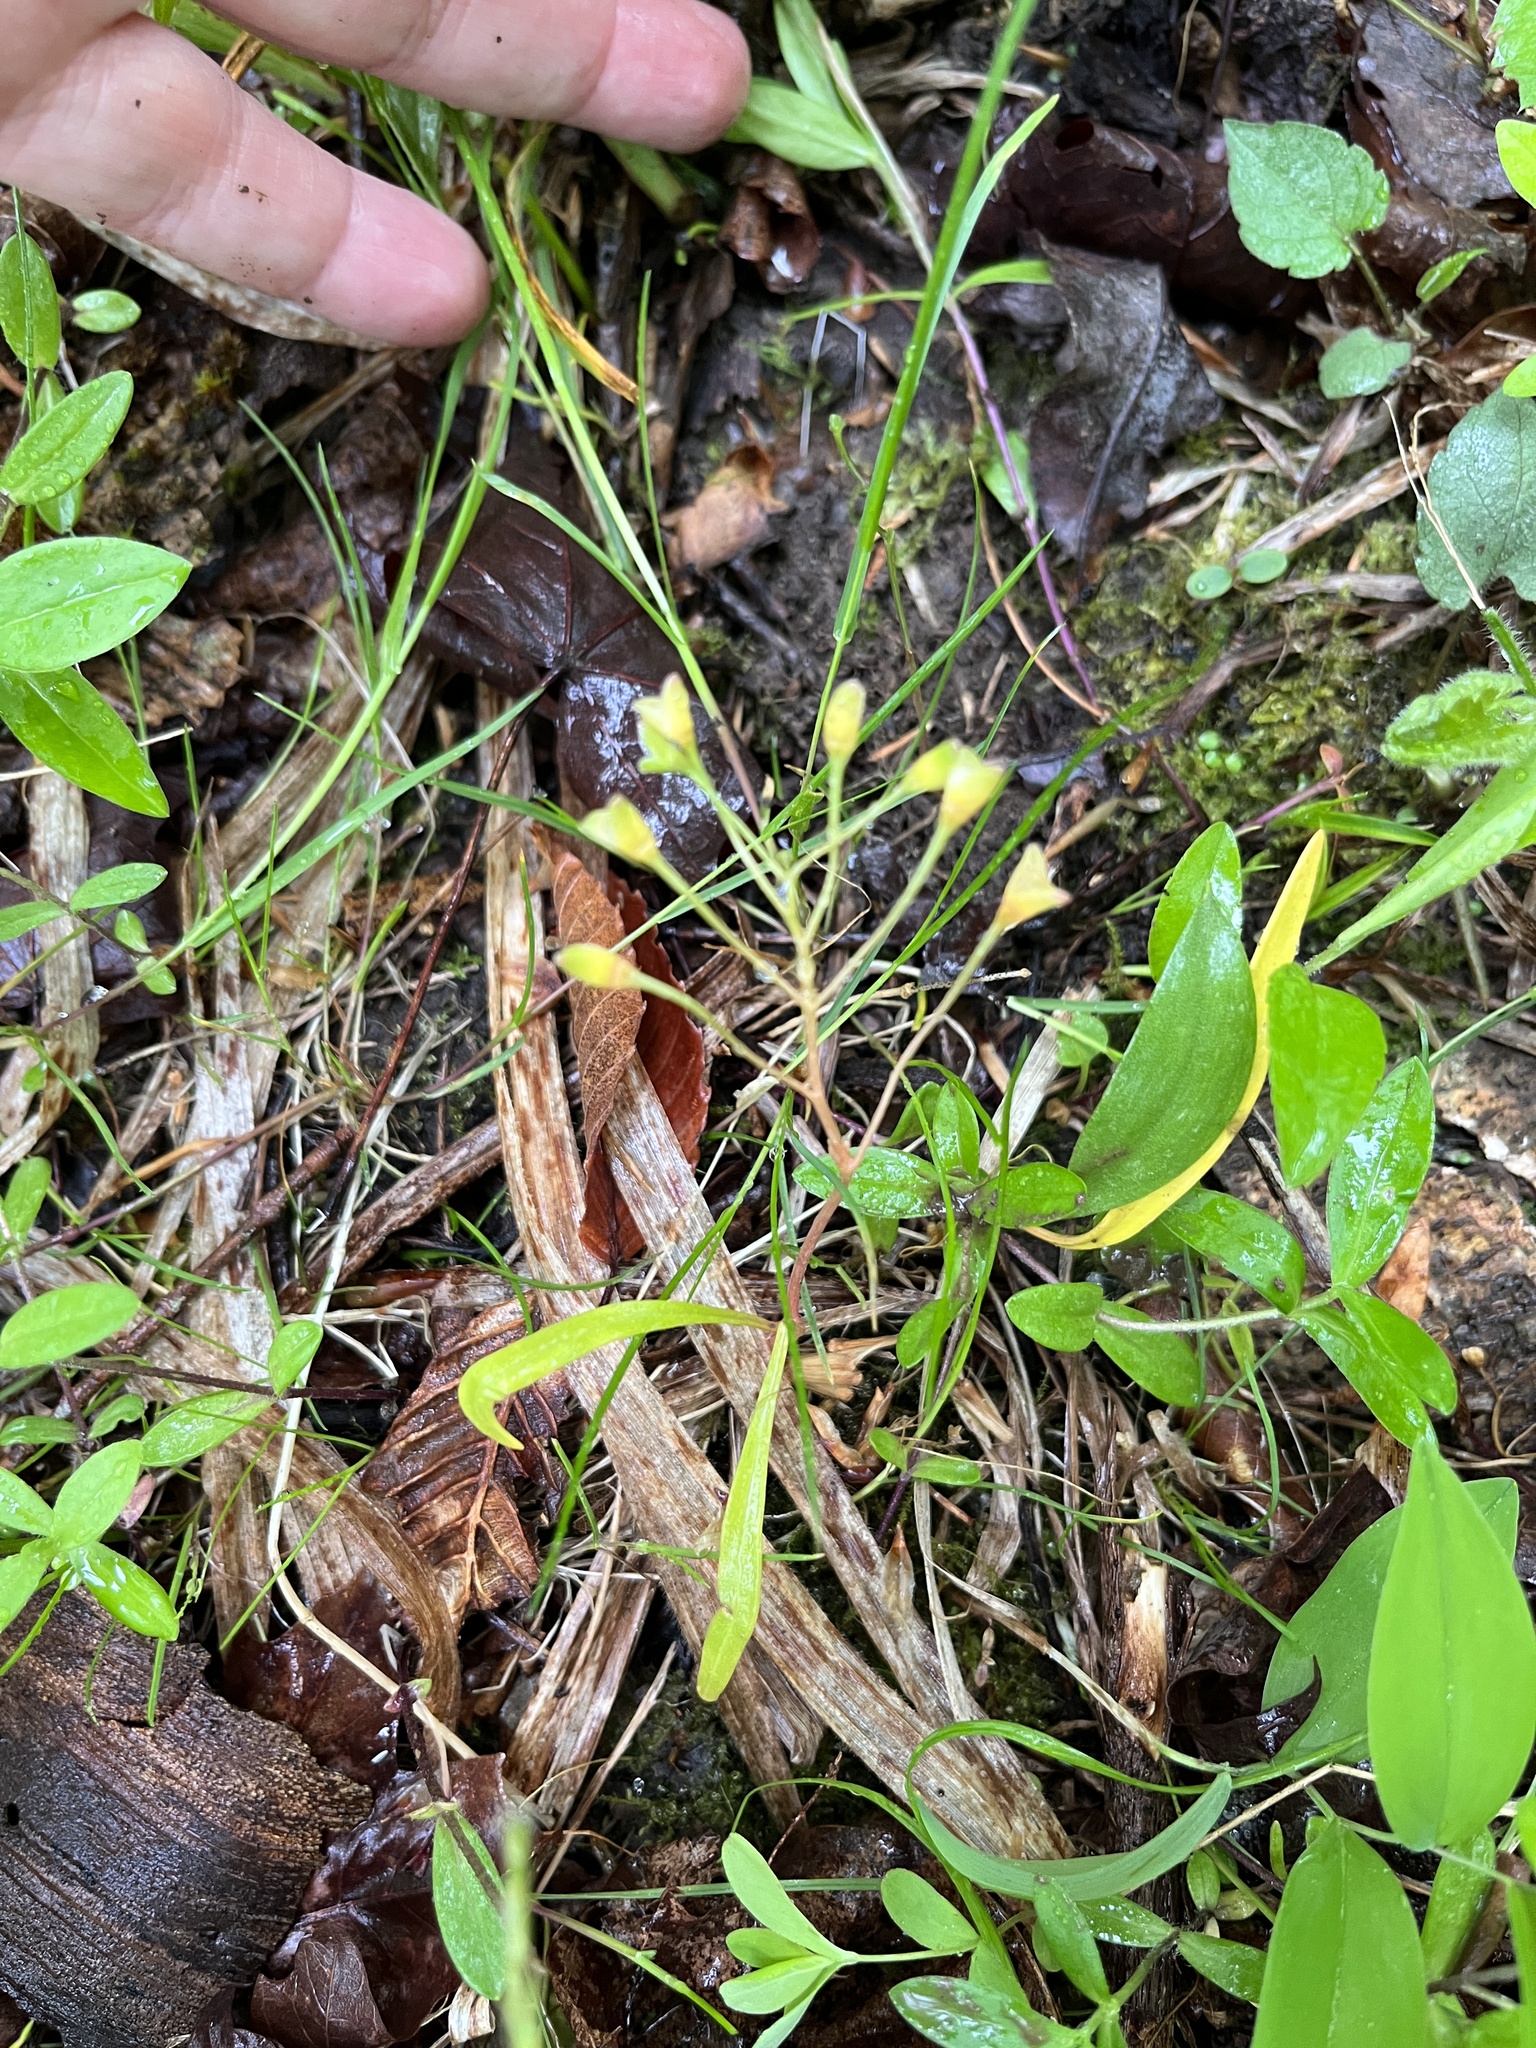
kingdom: Plantae
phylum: Tracheophyta
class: Magnoliopsida
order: Caryophyllales
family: Montiaceae
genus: Claytonia
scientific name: Claytonia virginica
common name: Virginia springbeauty
